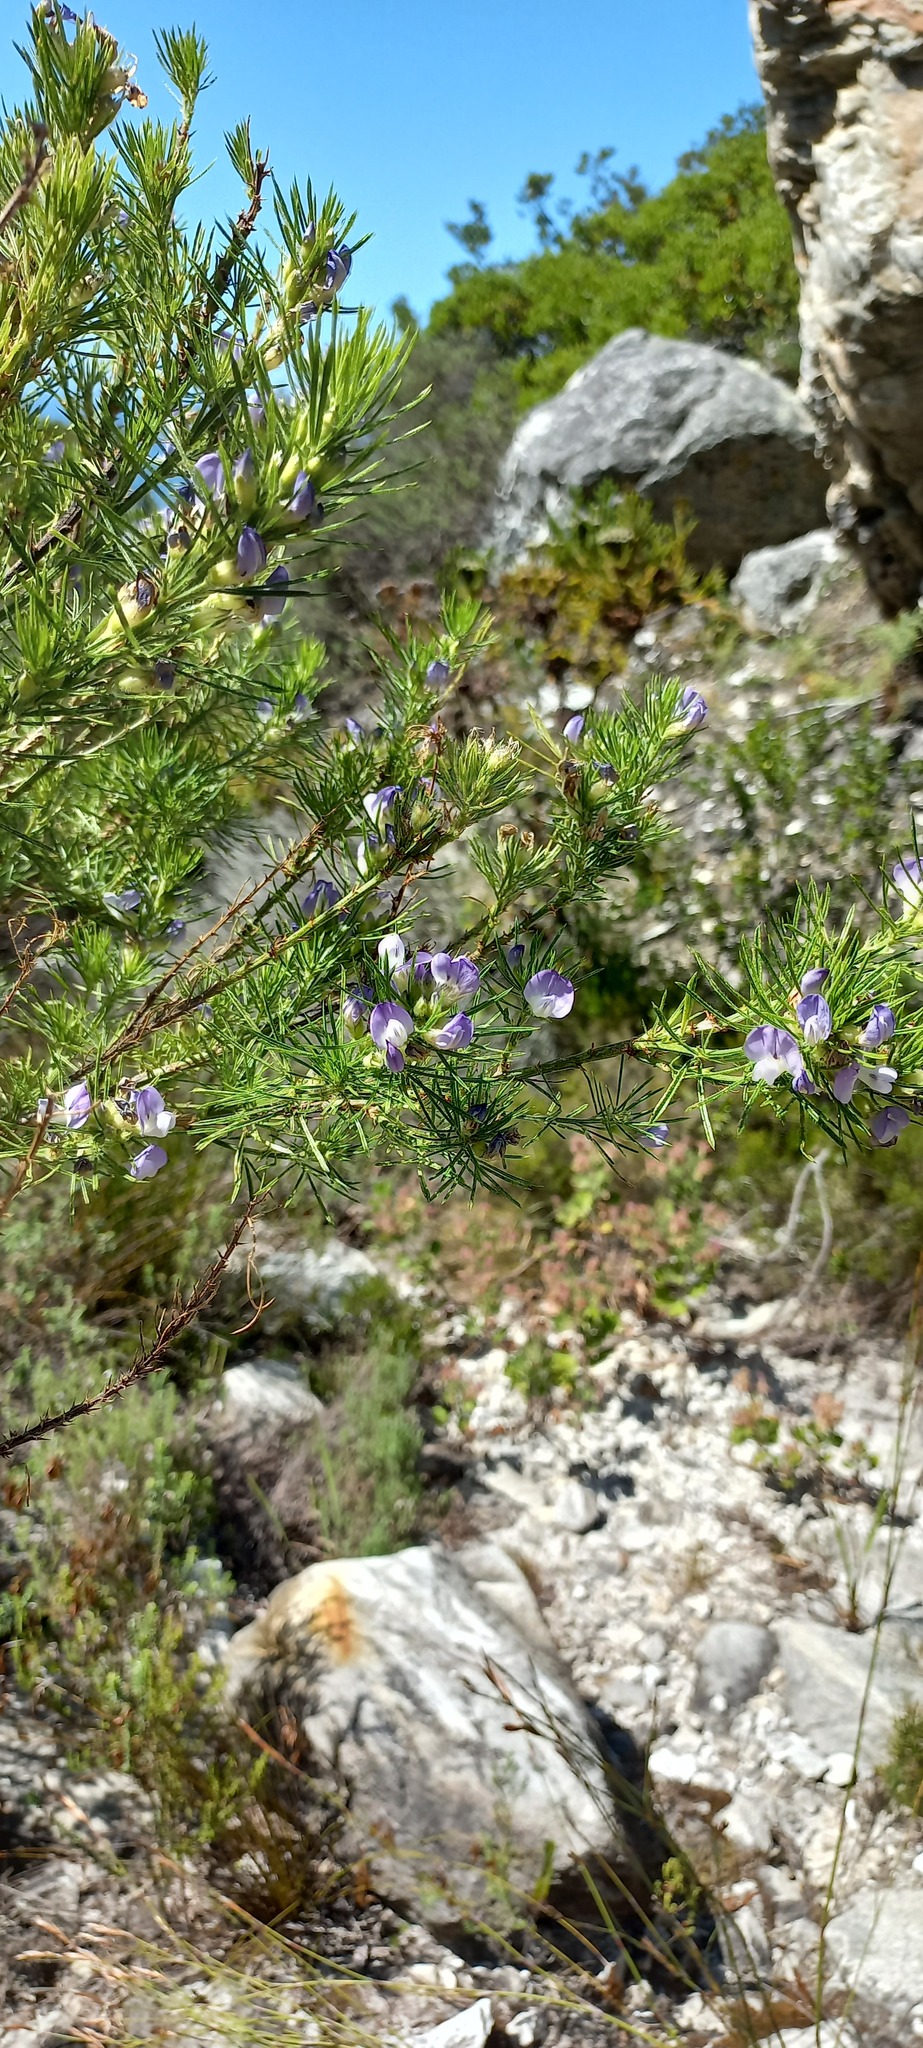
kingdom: Plantae
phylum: Tracheophyta
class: Magnoliopsida
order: Fabales
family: Fabaceae
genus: Psoralea
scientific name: Psoralea affinis
